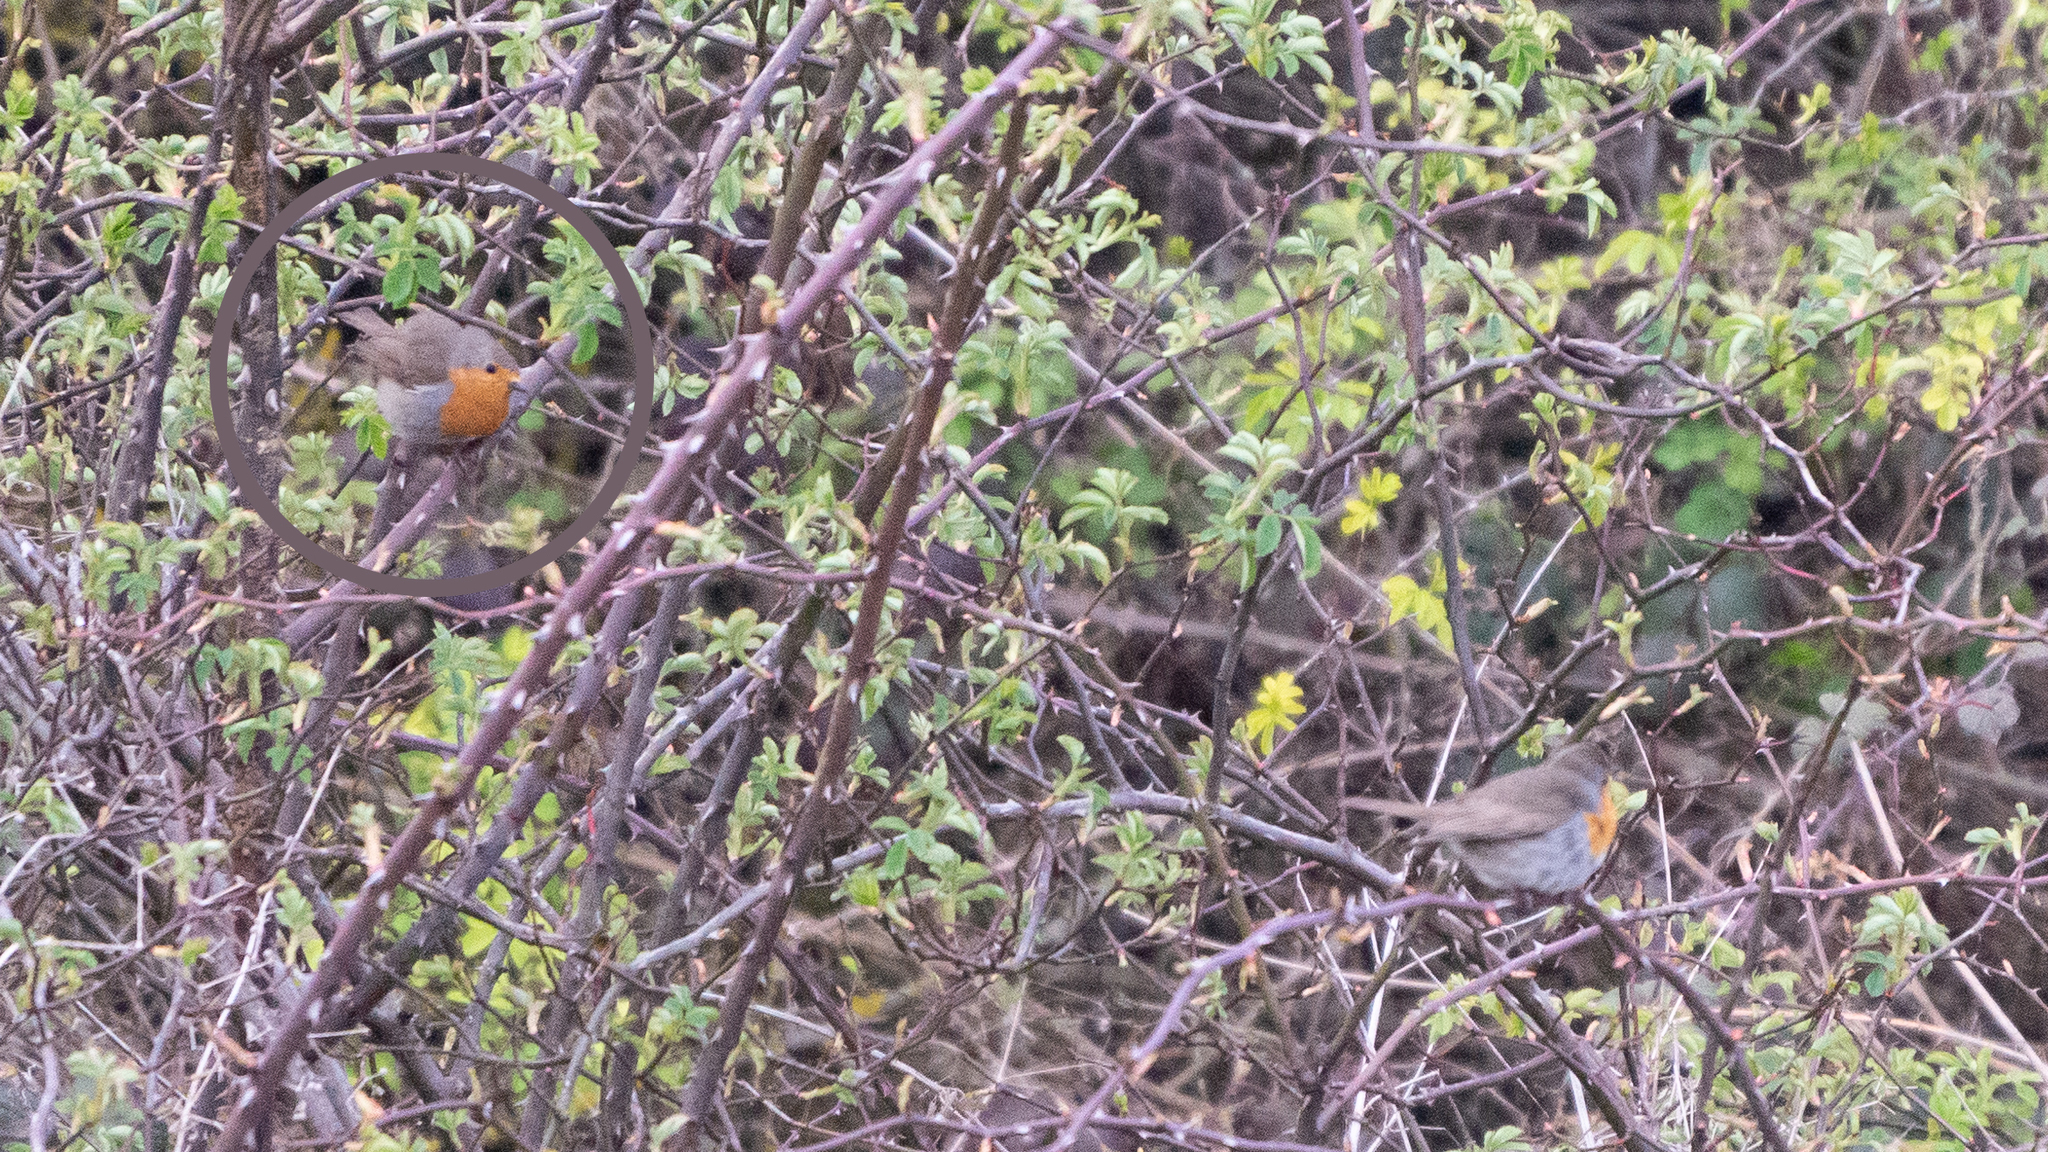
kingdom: Animalia
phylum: Chordata
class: Aves
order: Passeriformes
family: Muscicapidae
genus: Erithacus
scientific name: Erithacus rubecula
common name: European robin
